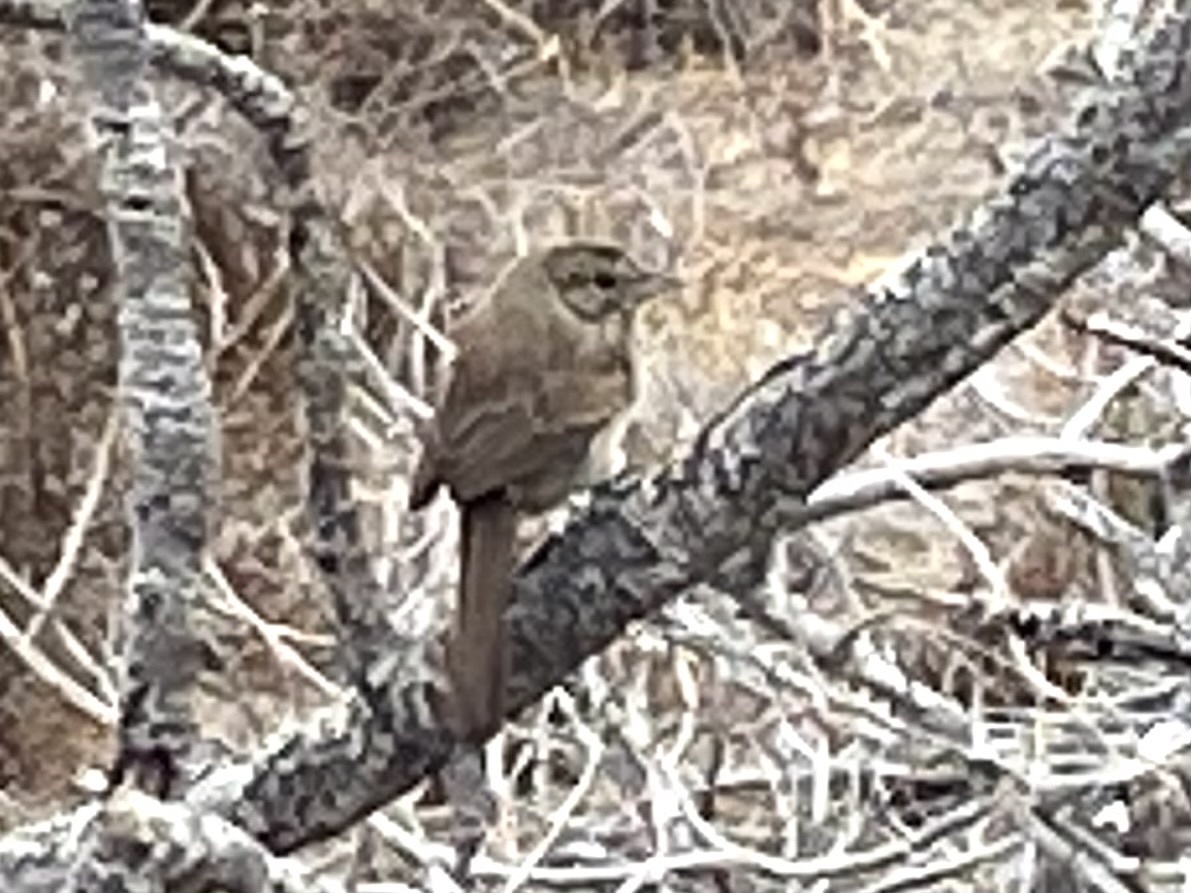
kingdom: Animalia
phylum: Chordata
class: Aves
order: Passeriformes
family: Passerellidae
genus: Aimophila
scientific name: Aimophila ruficeps
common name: Rufous-crowned sparrow
